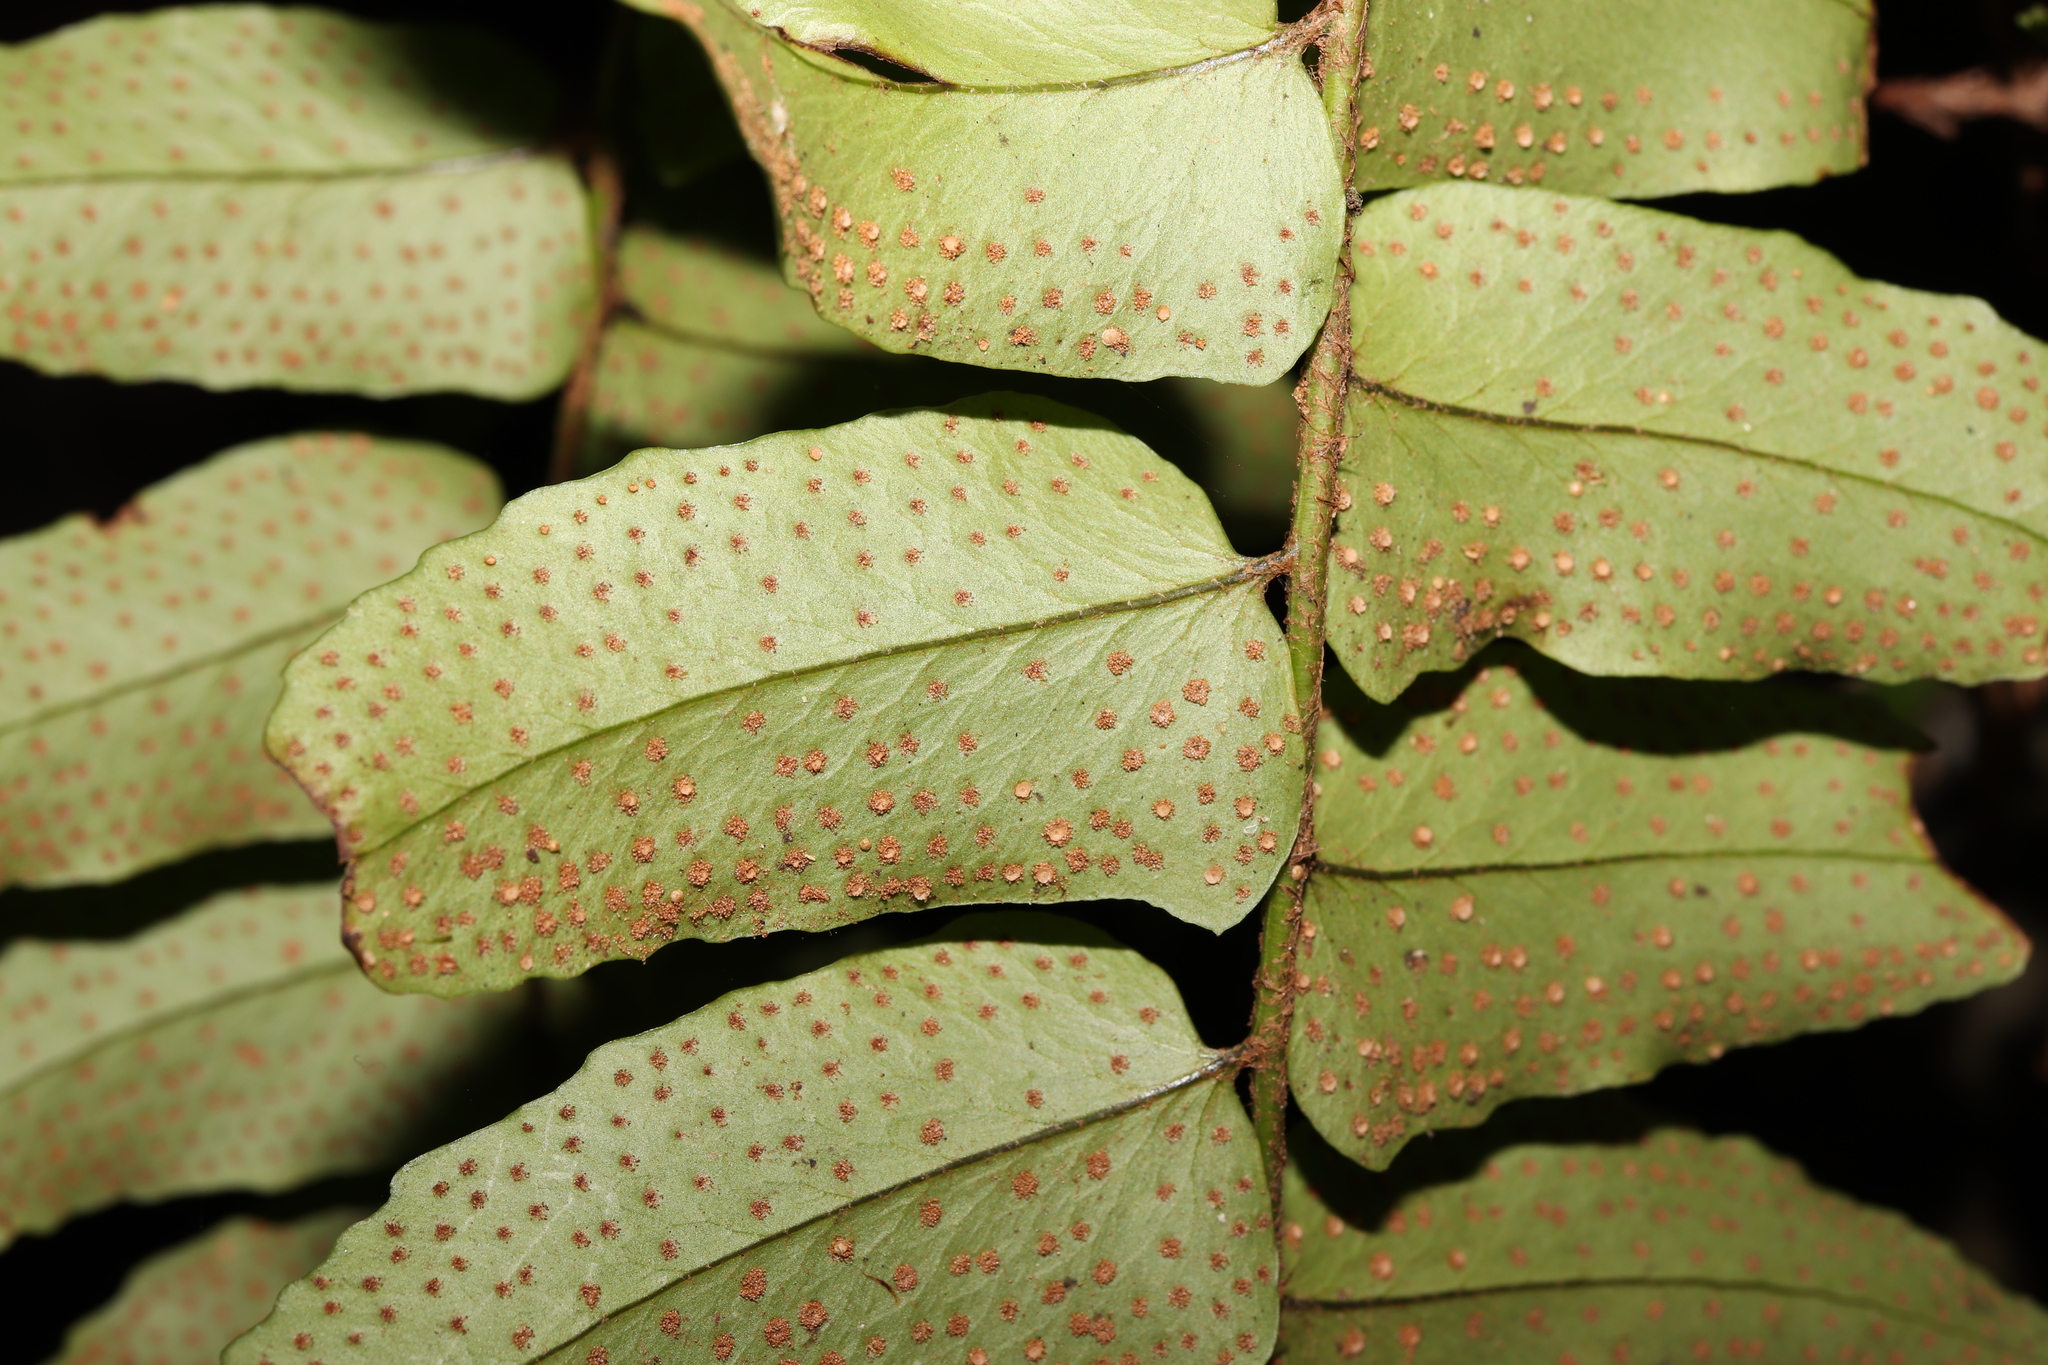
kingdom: Plantae
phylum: Tracheophyta
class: Polypodiopsida
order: Polypodiales
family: Dryopteridaceae
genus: Cyrtomium
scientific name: Cyrtomium clivicola
